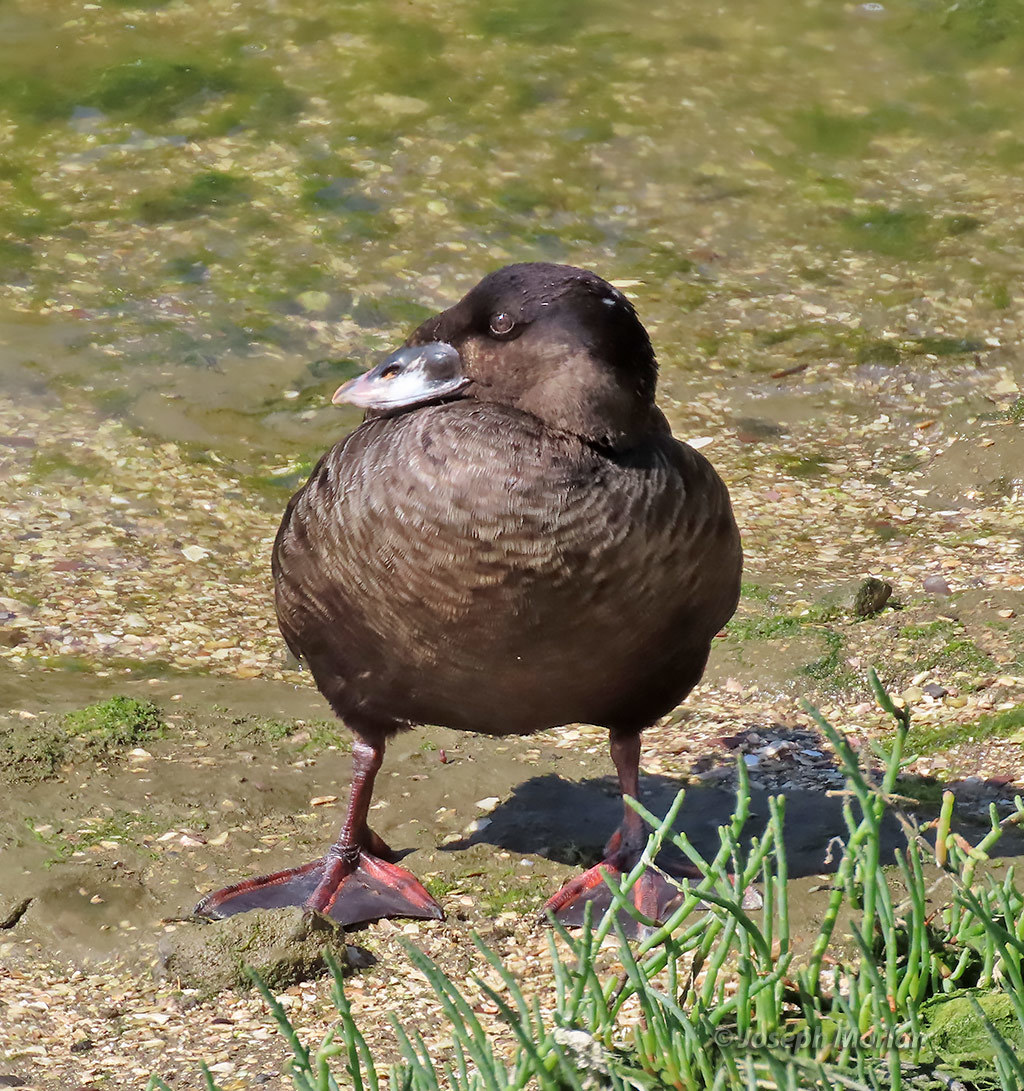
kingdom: Animalia
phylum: Chordata
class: Aves
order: Anseriformes
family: Anatidae
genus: Melanitta
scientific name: Melanitta perspicillata
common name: Surf scoter
